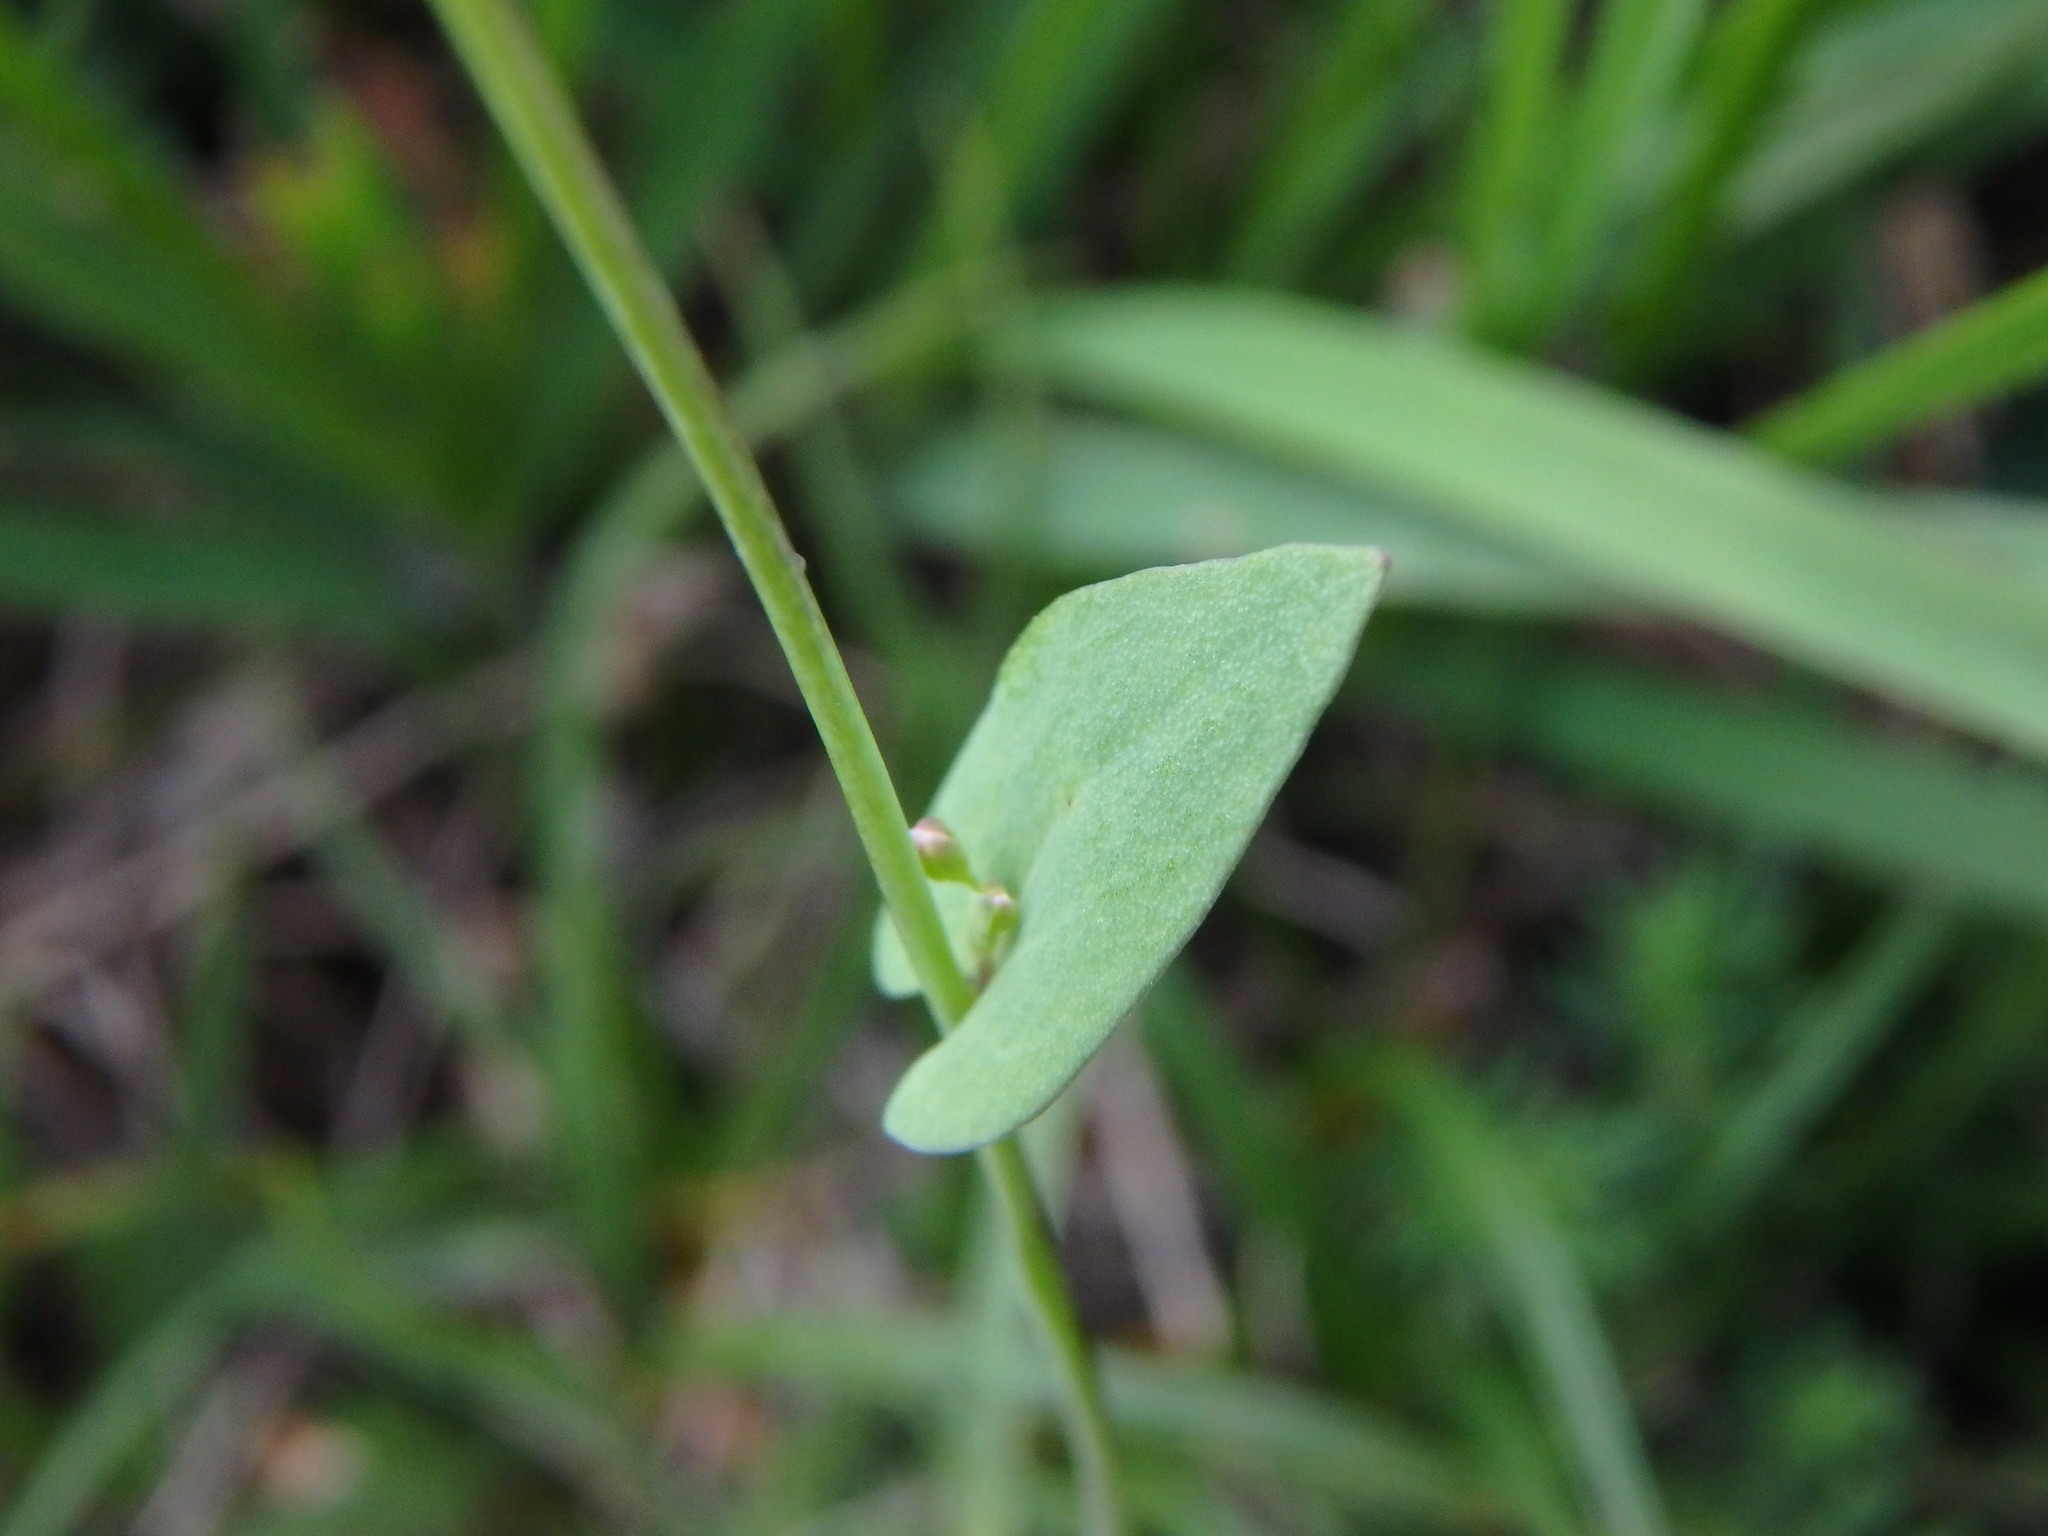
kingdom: Plantae
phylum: Tracheophyta
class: Magnoliopsida
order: Brassicales
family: Brassicaceae
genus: Noccaea
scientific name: Noccaea perfoliata
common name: Perfoliate pennycress
